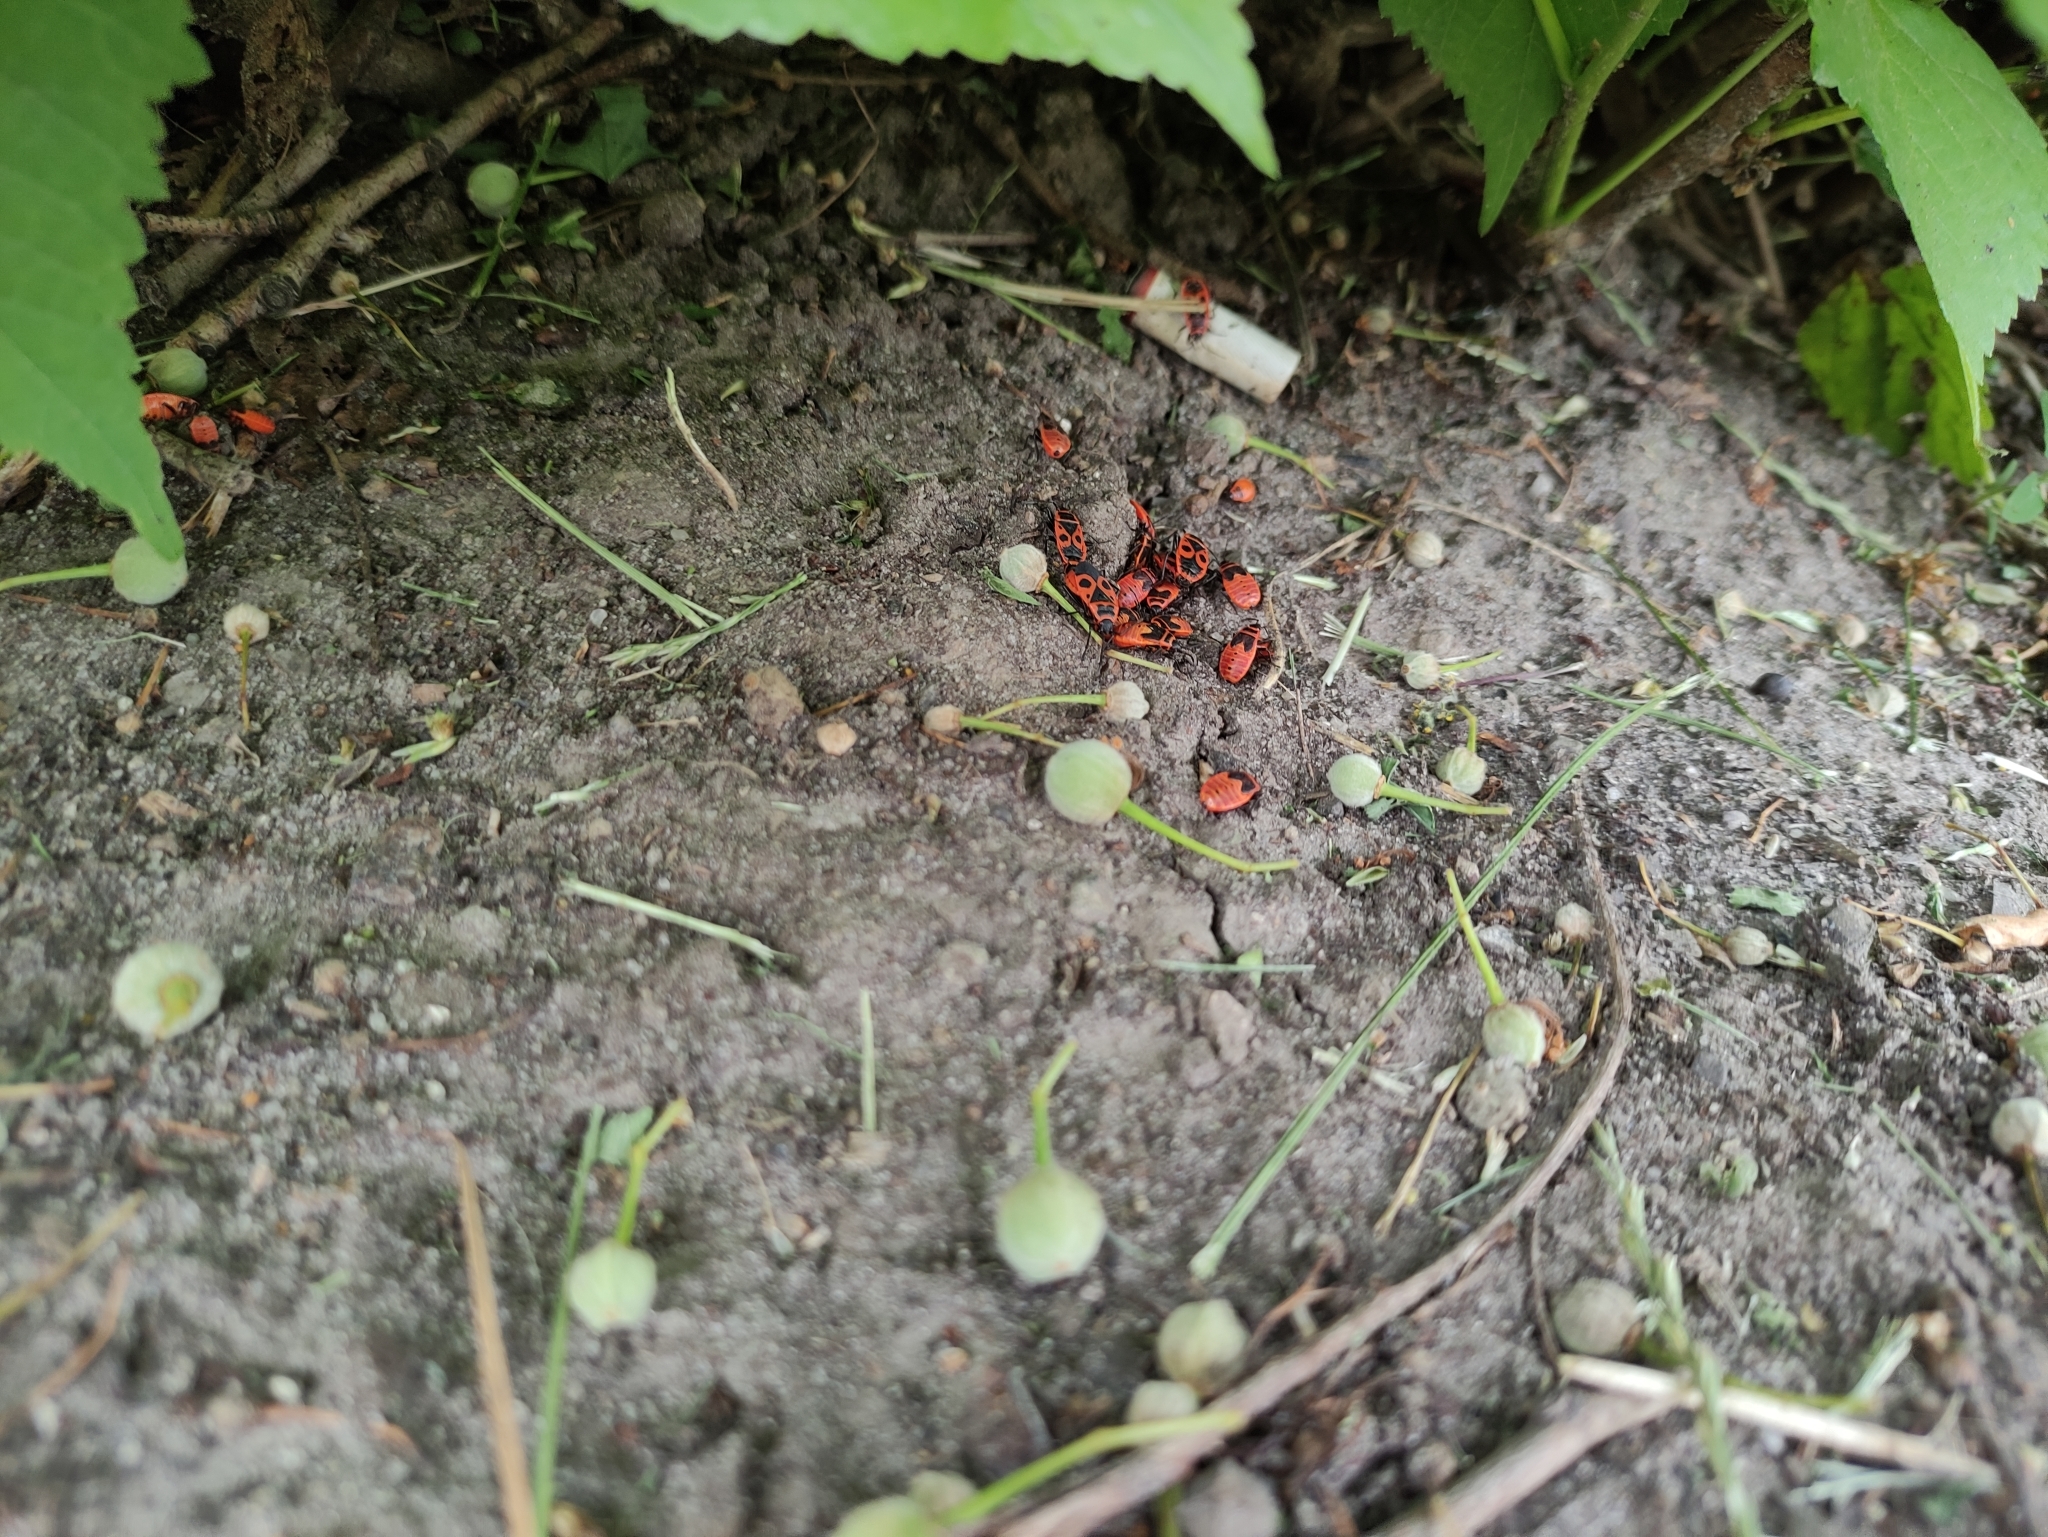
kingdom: Animalia
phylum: Arthropoda
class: Insecta
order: Hemiptera
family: Pyrrhocoridae
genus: Pyrrhocoris
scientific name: Pyrrhocoris apterus
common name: Firebug
